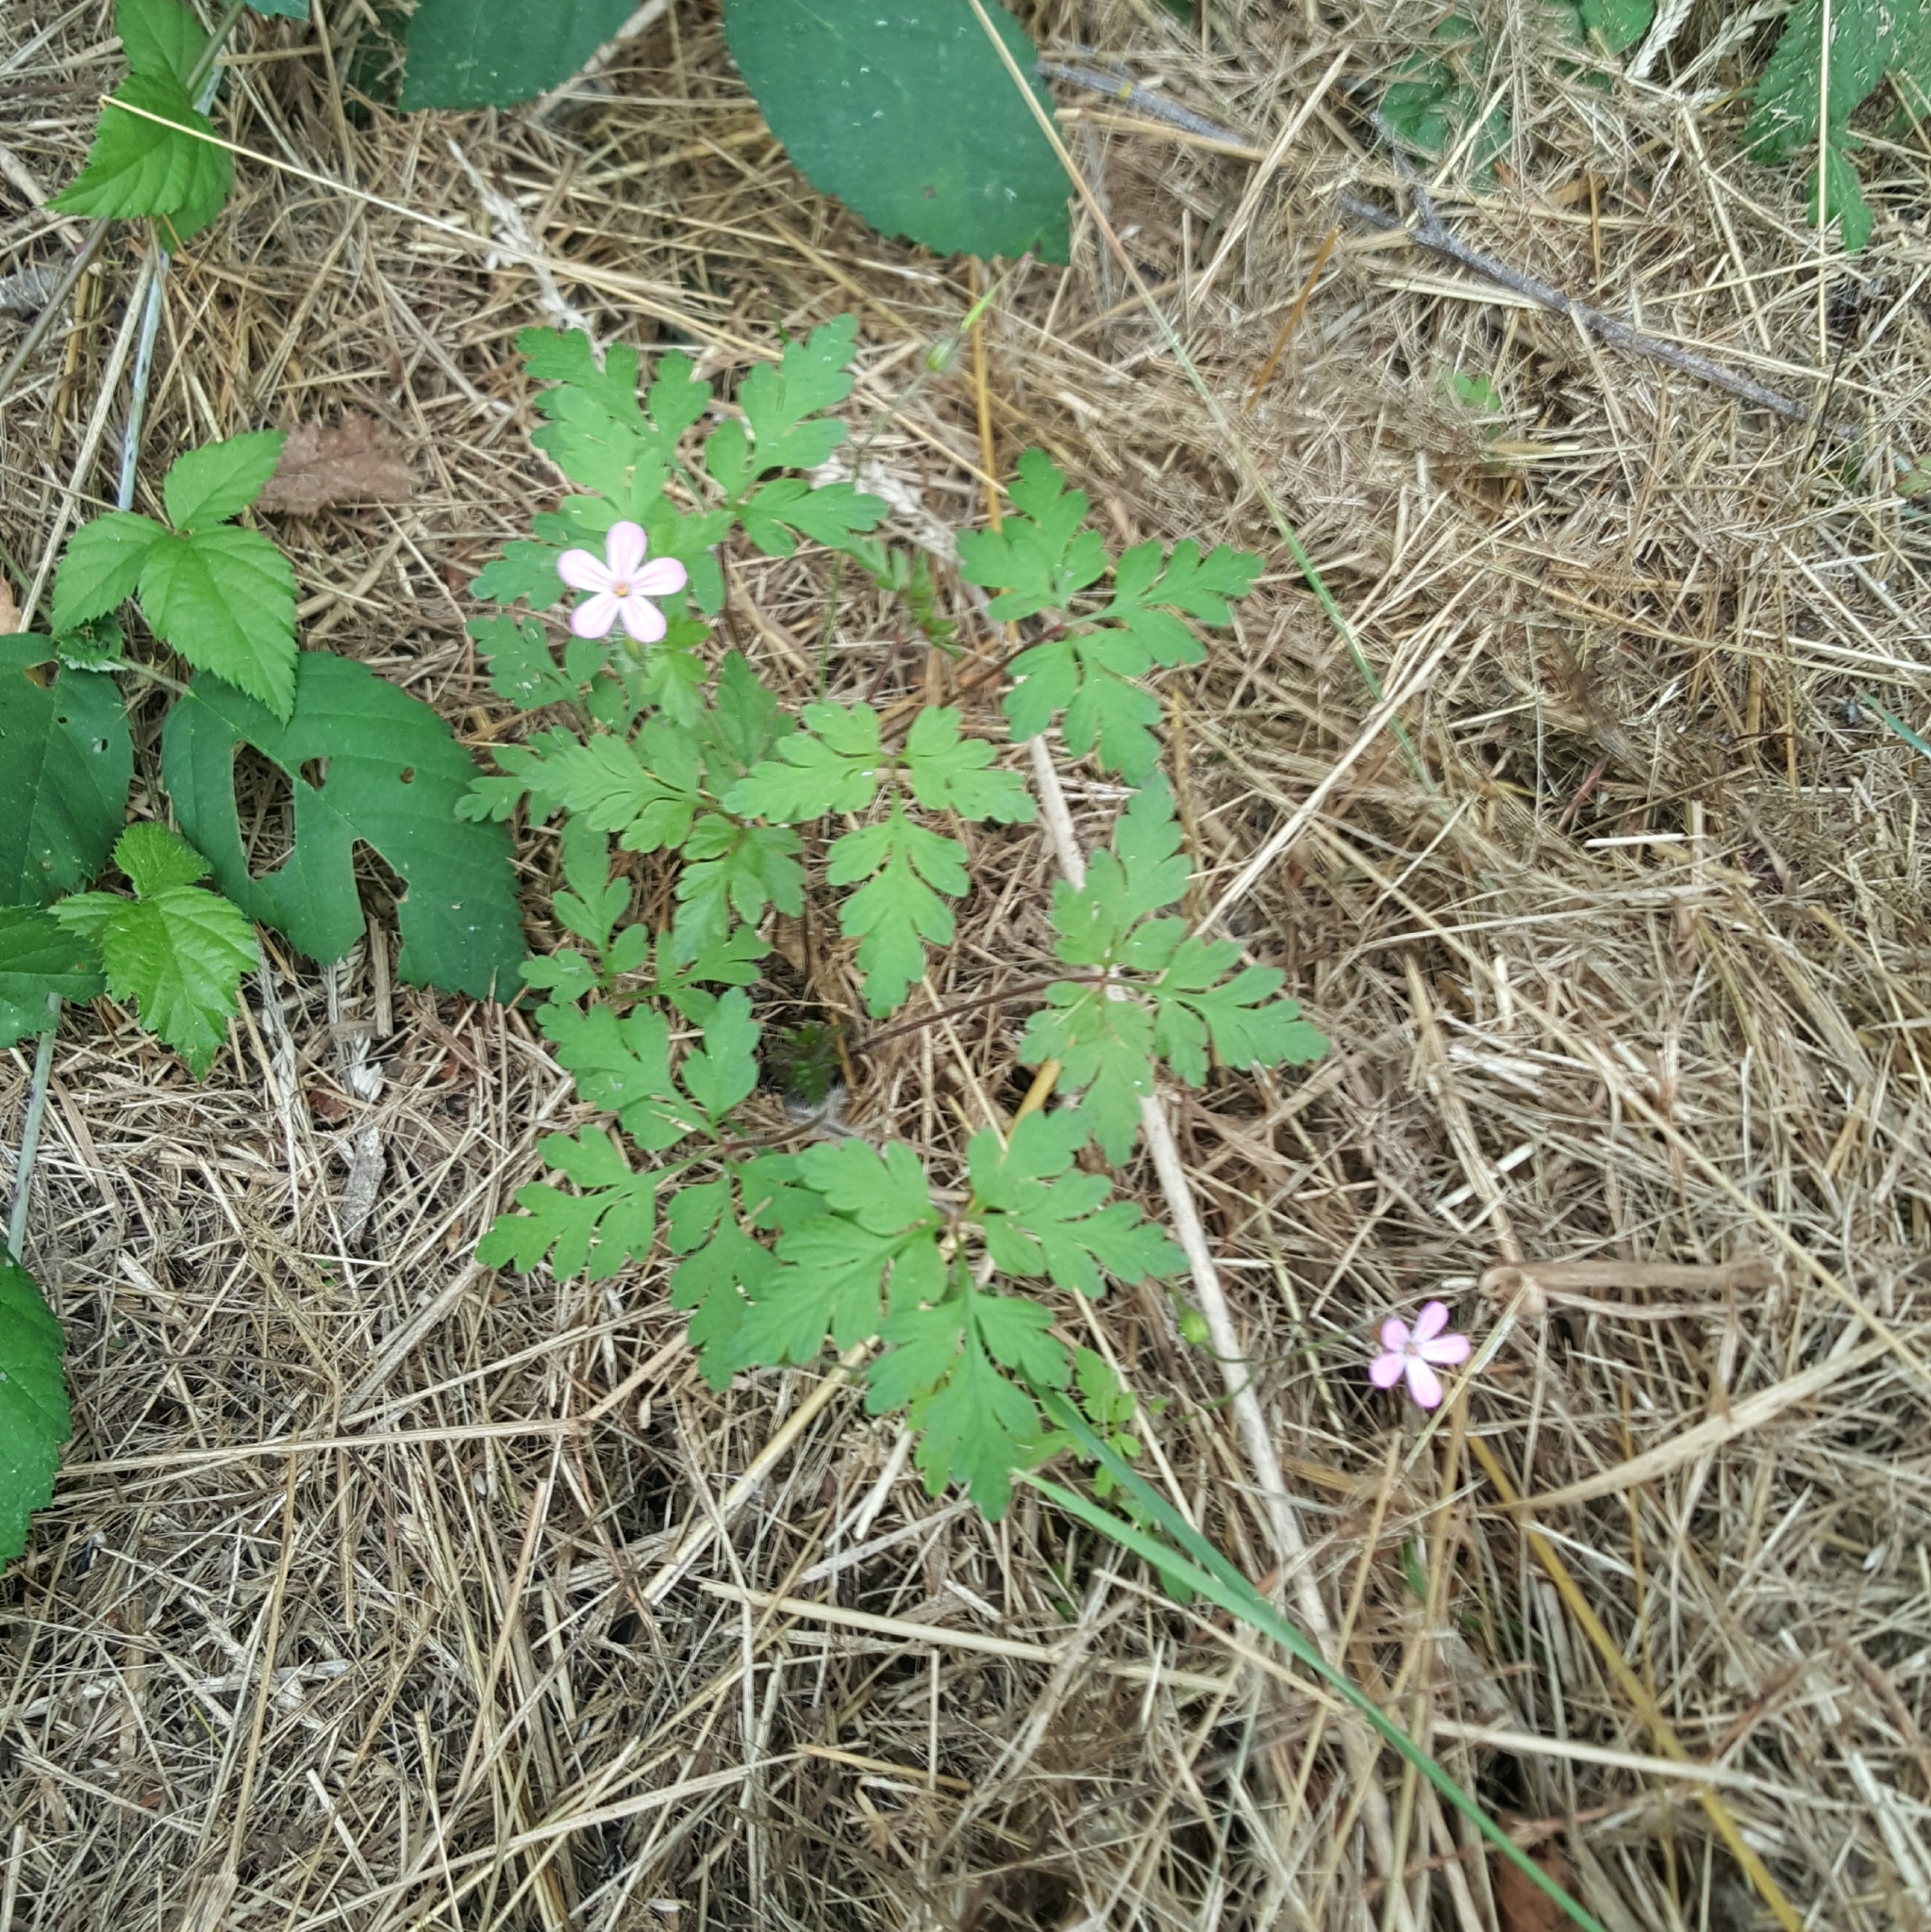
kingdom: Plantae
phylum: Tracheophyta
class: Magnoliopsida
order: Geraniales
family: Geraniaceae
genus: Geranium
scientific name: Geranium robertianum
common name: Herb-robert
